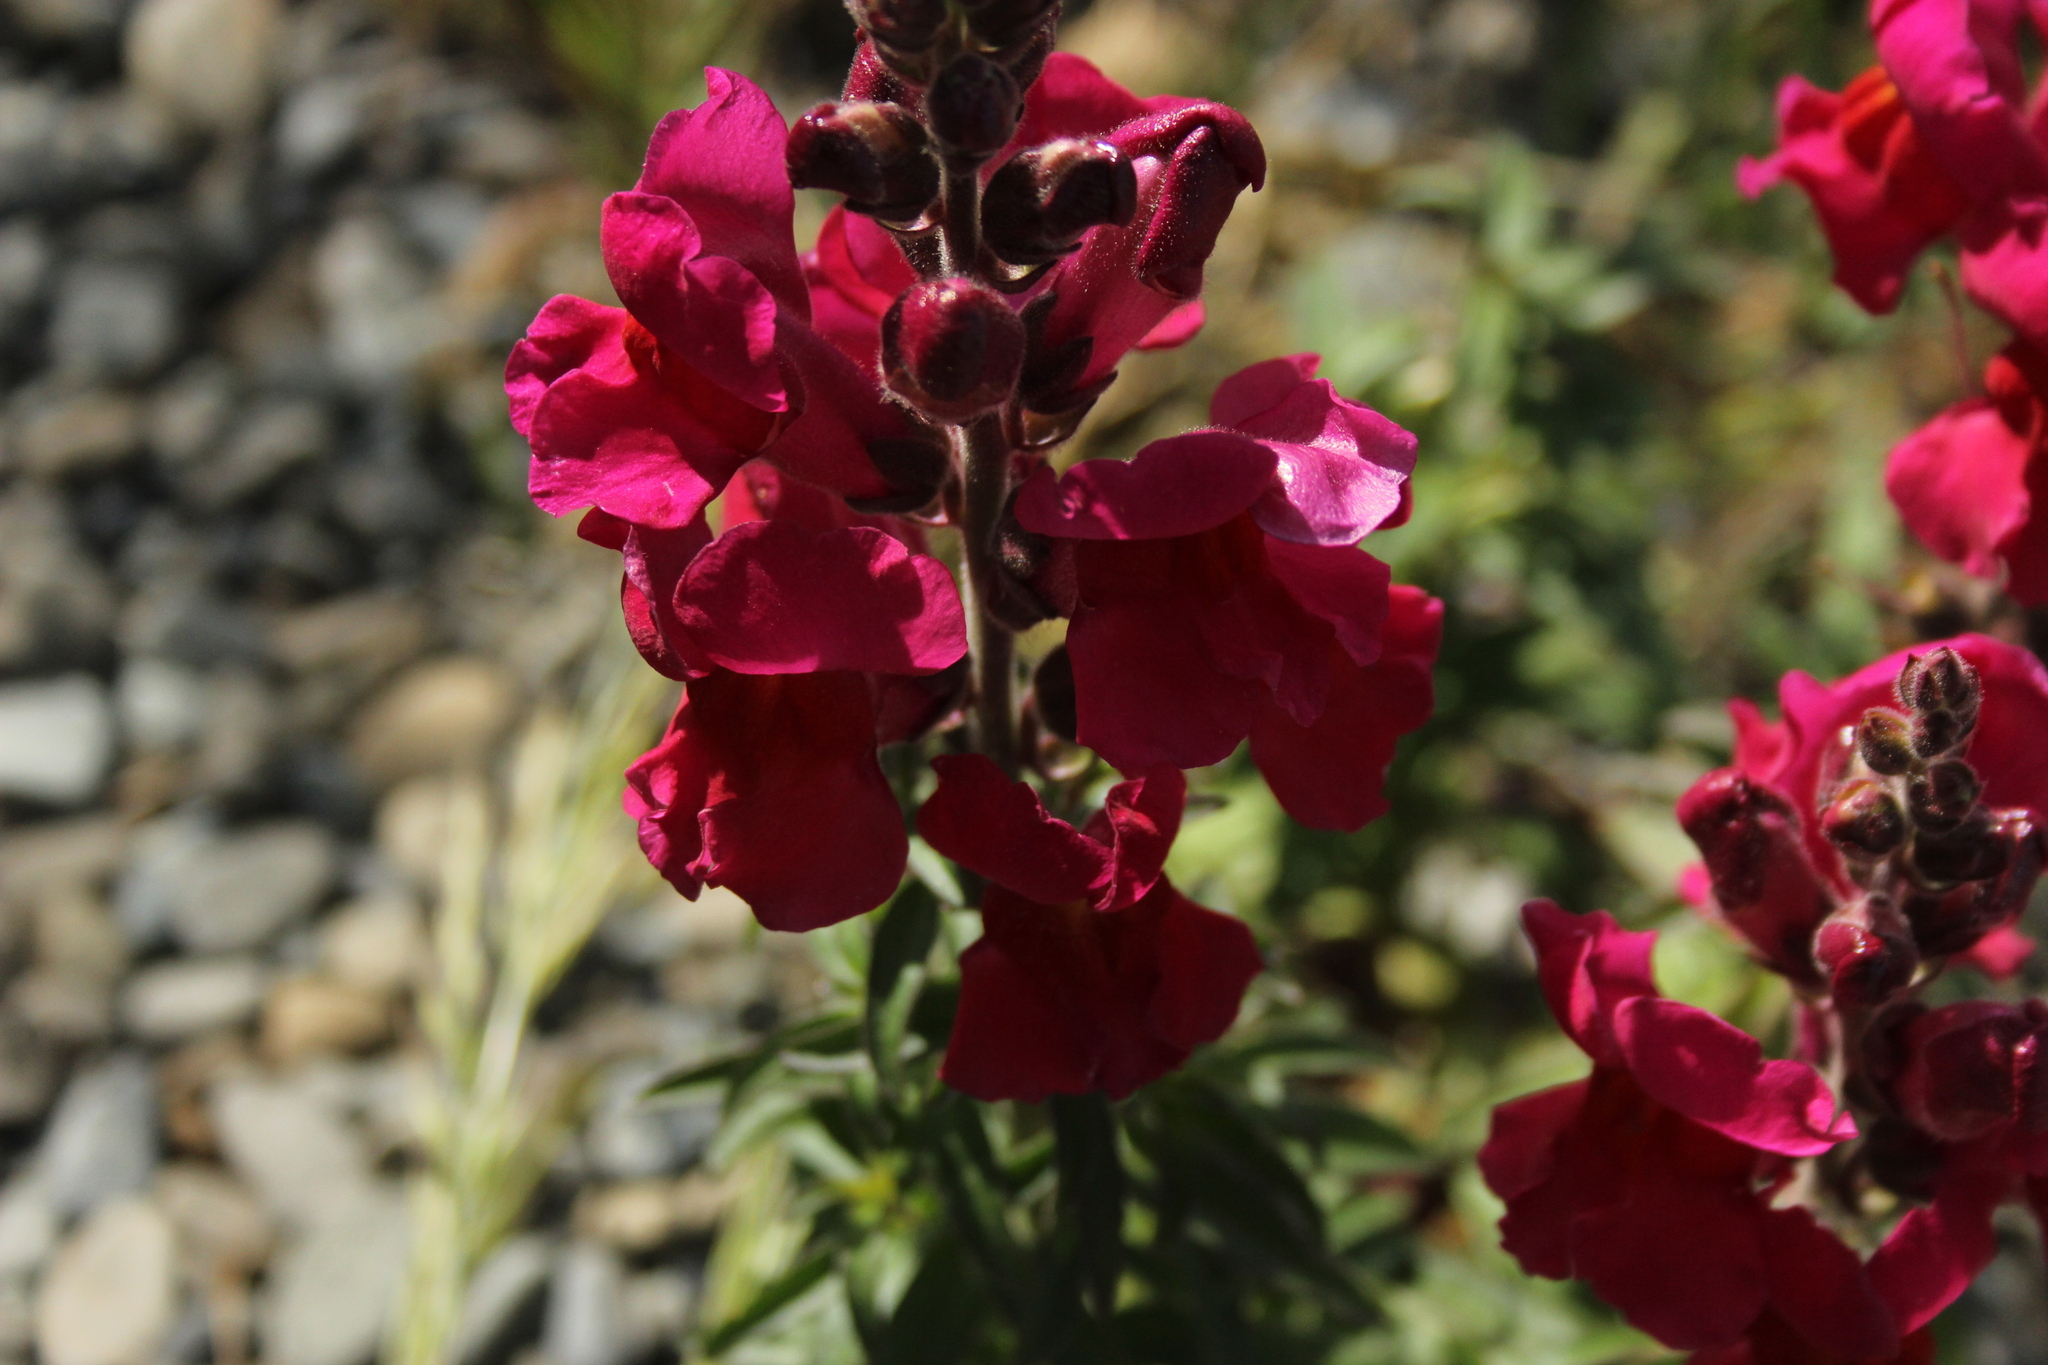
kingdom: Plantae
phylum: Tracheophyta
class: Magnoliopsida
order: Lamiales
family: Plantaginaceae
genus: Antirrhinum
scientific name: Antirrhinum majus
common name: Snapdragon
